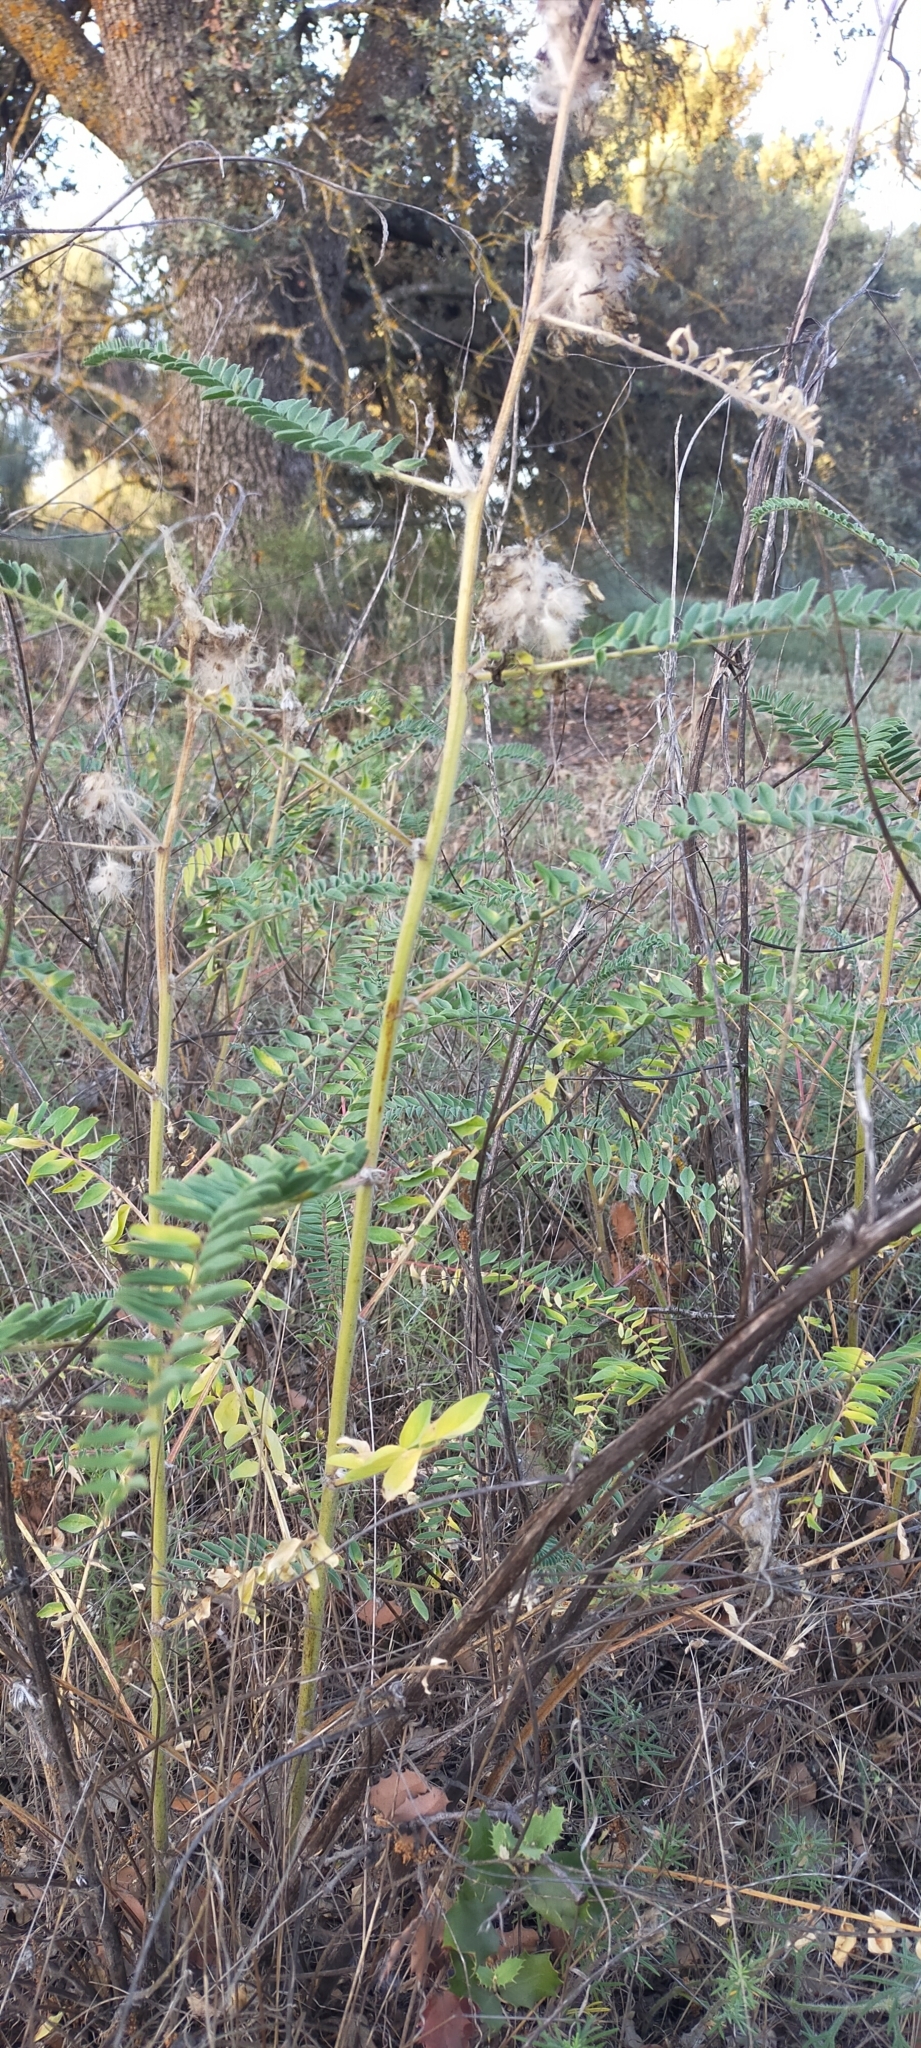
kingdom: Plantae
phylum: Tracheophyta
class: Magnoliopsida
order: Fabales
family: Fabaceae
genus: Astragalus
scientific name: Astragalus alopecuroides
